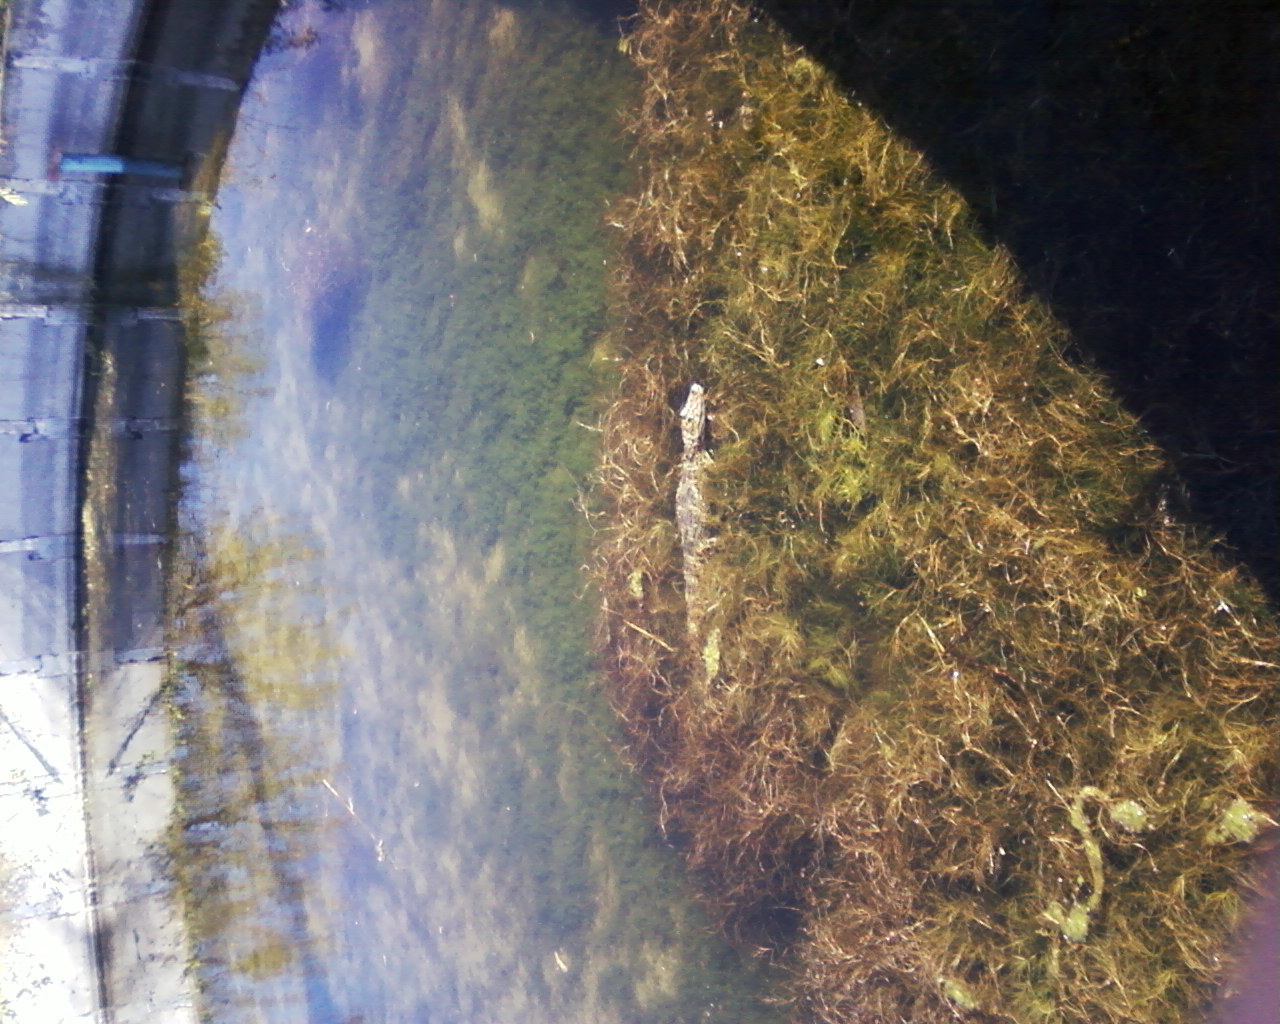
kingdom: Animalia
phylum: Chordata
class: Crocodylia
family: Alligatoridae
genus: Caiman
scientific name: Caiman latirostris
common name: Broad-snouted caiman
